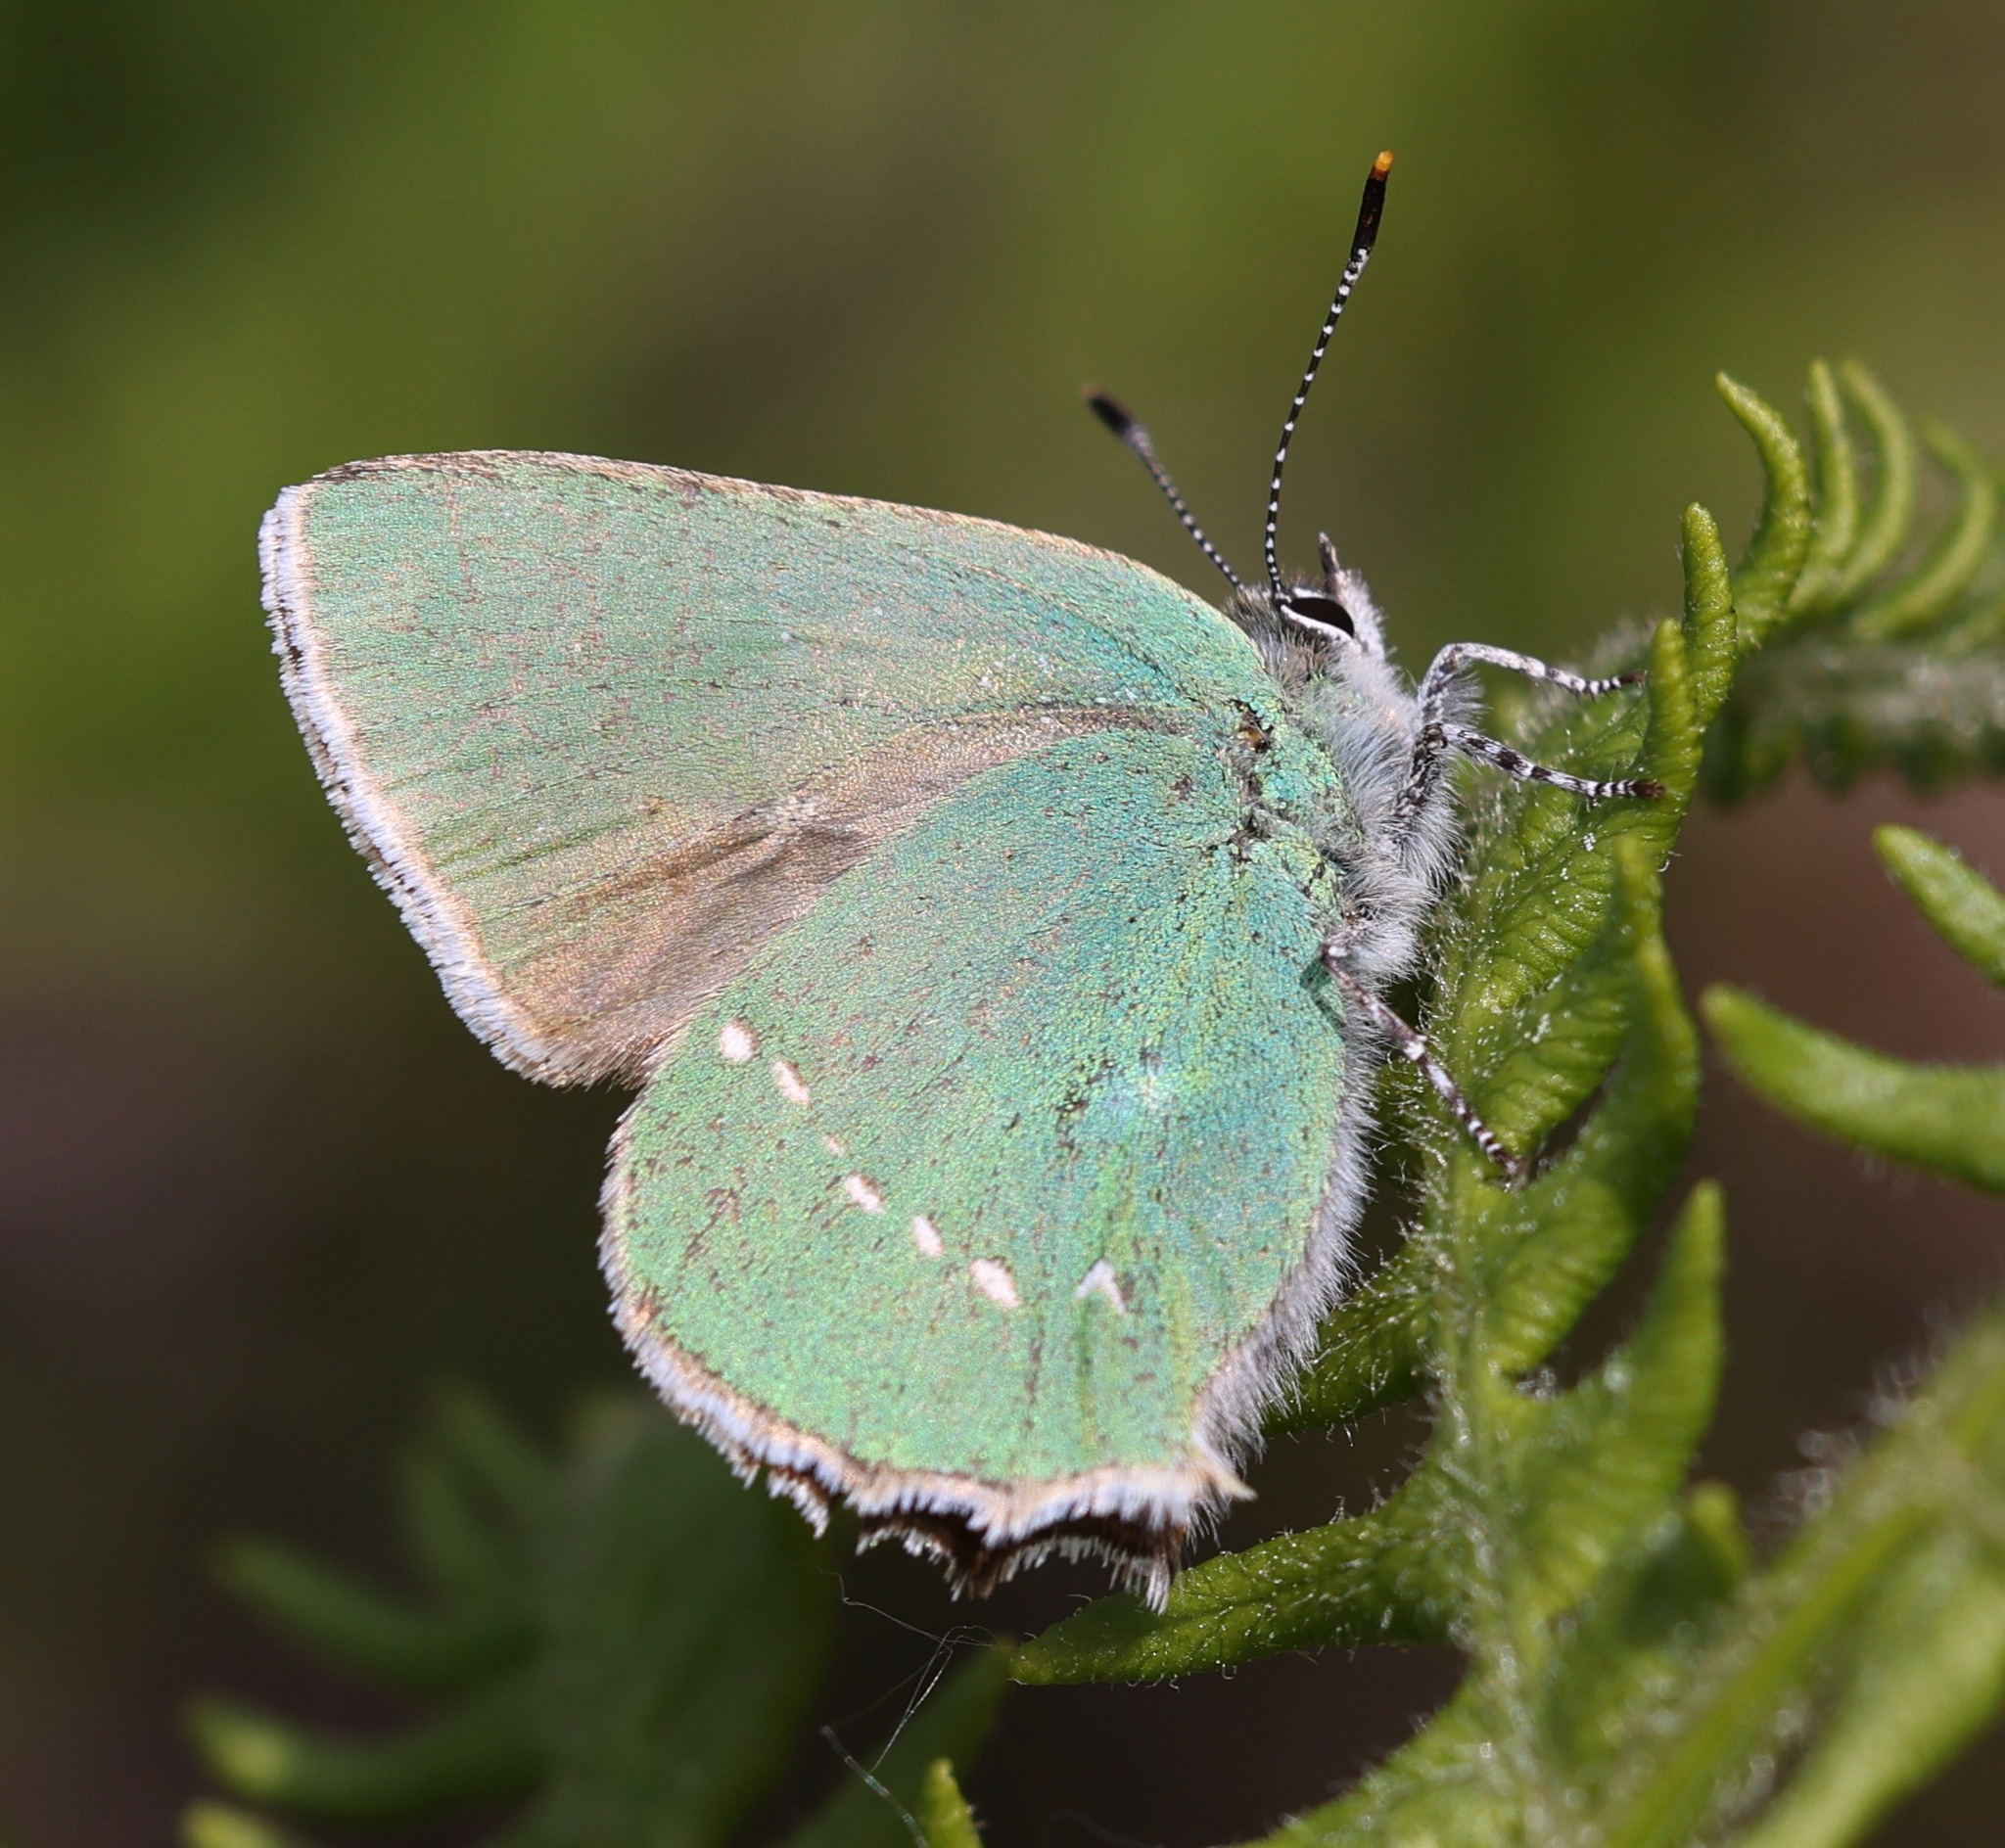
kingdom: Animalia
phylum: Arthropoda
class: Insecta
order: Lepidoptera
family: Lycaenidae
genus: Callophrys
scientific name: Callophrys rubi
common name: Green hairstreak
